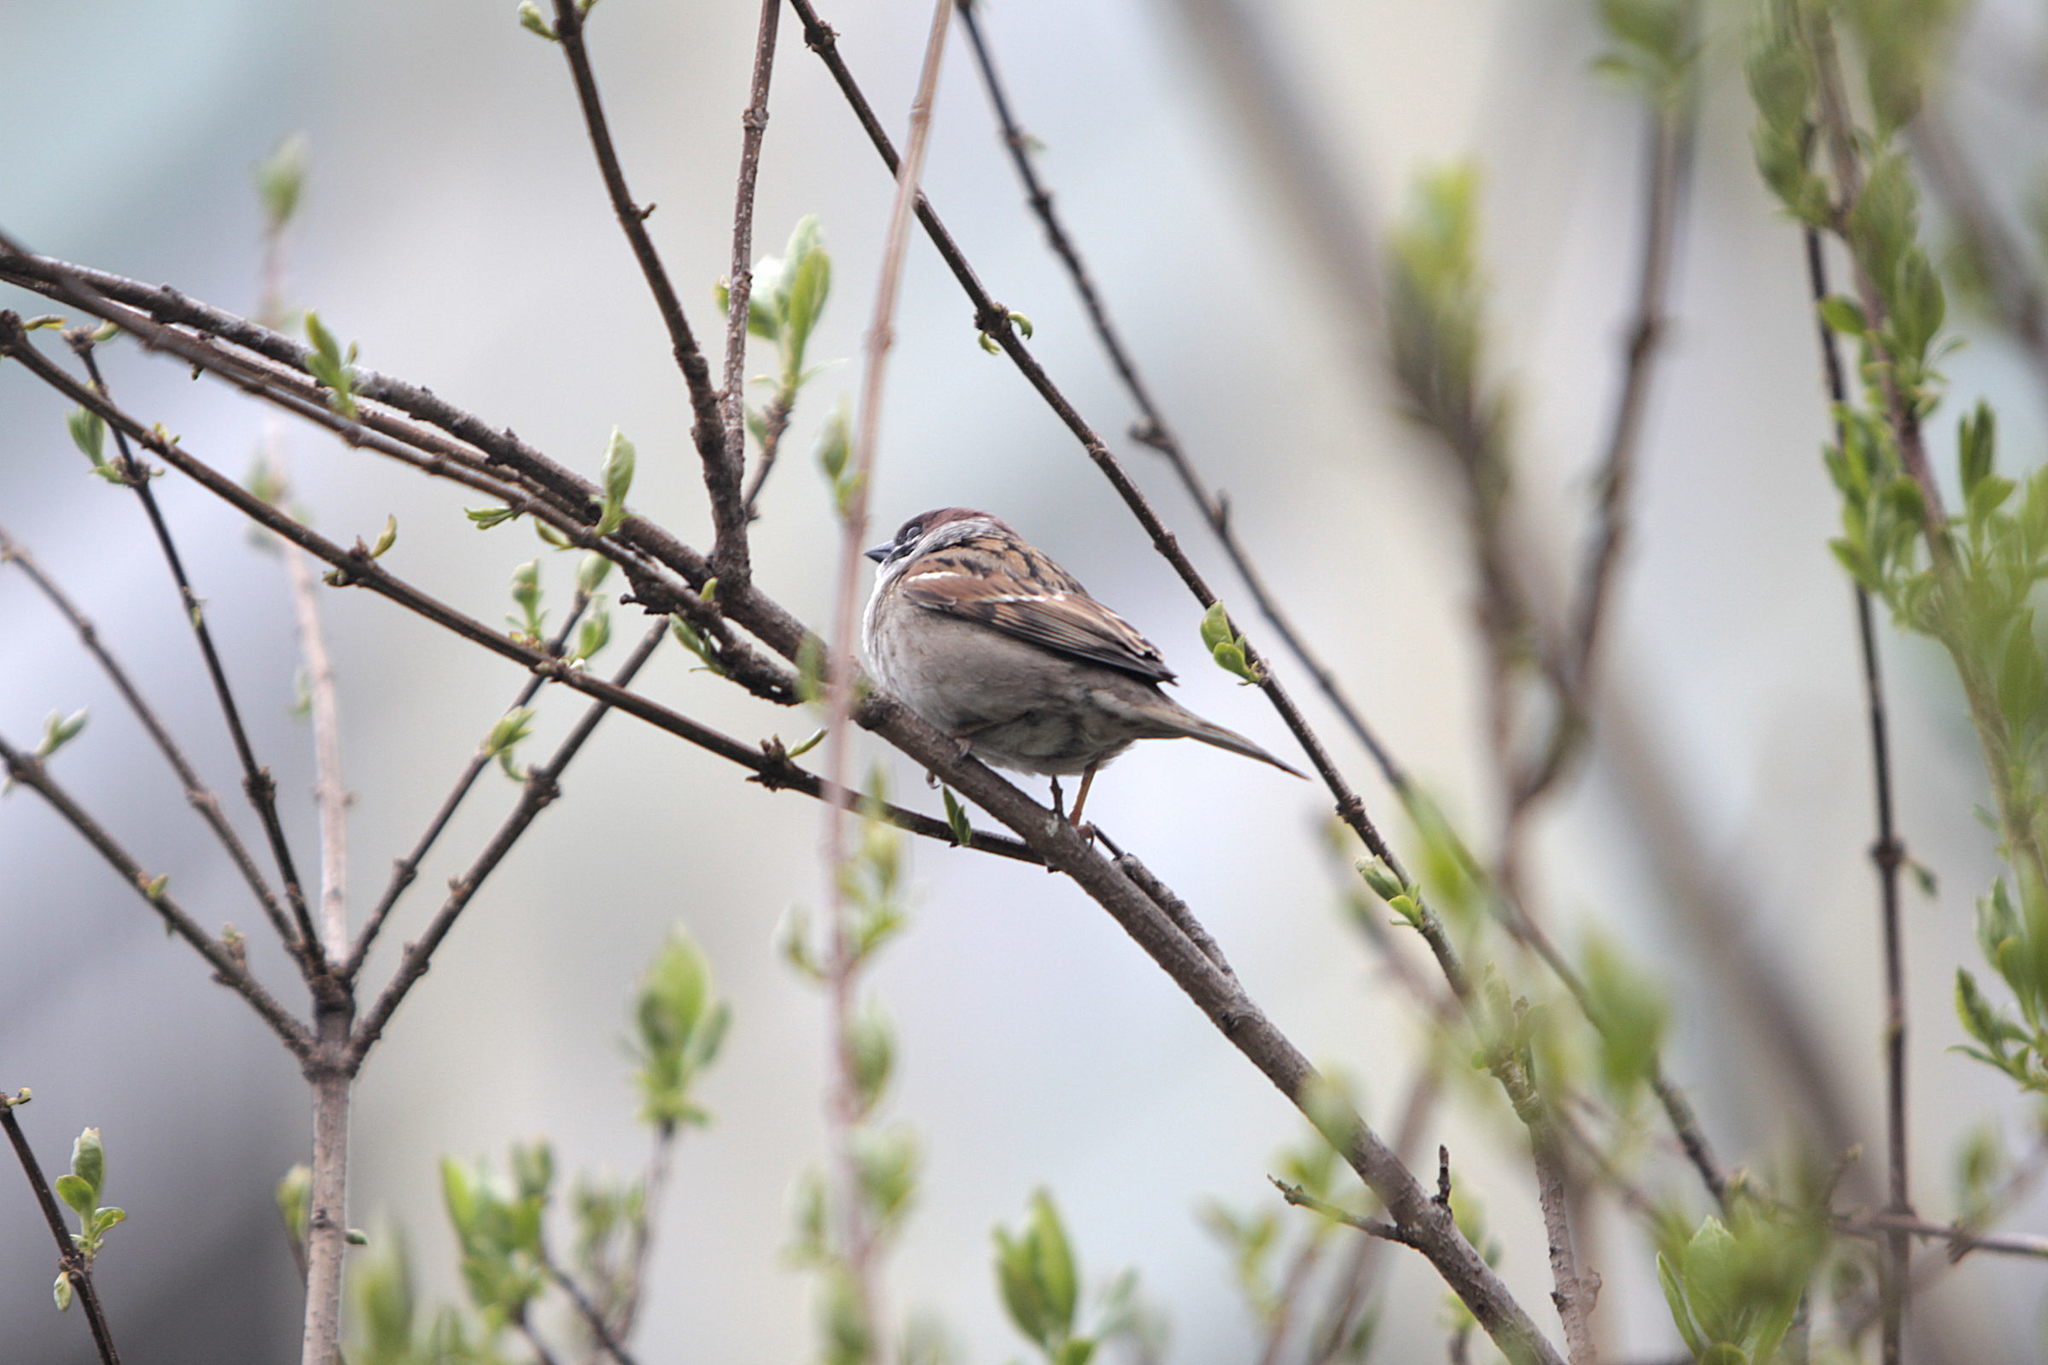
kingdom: Animalia
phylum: Chordata
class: Aves
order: Passeriformes
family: Passeridae
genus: Passer
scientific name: Passer montanus
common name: Eurasian tree sparrow
